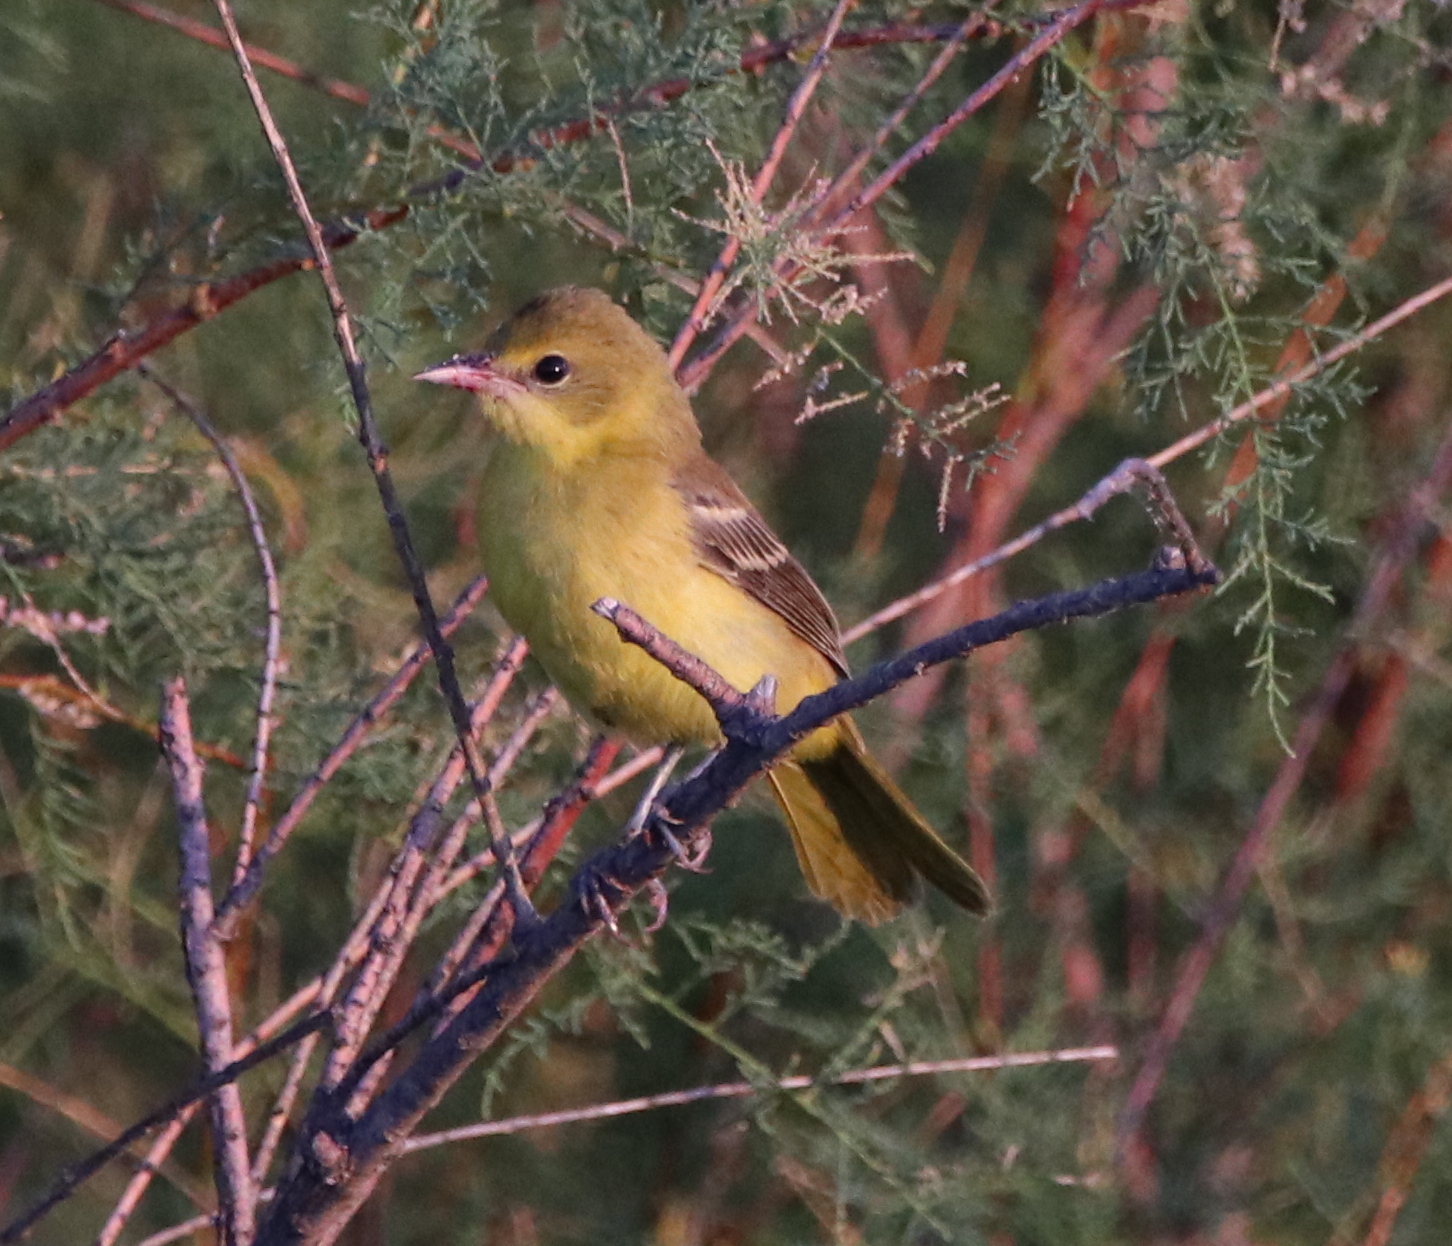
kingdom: Animalia
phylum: Chordata
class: Aves
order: Passeriformes
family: Icteridae
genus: Icterus
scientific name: Icterus spurius
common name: Orchard oriole
